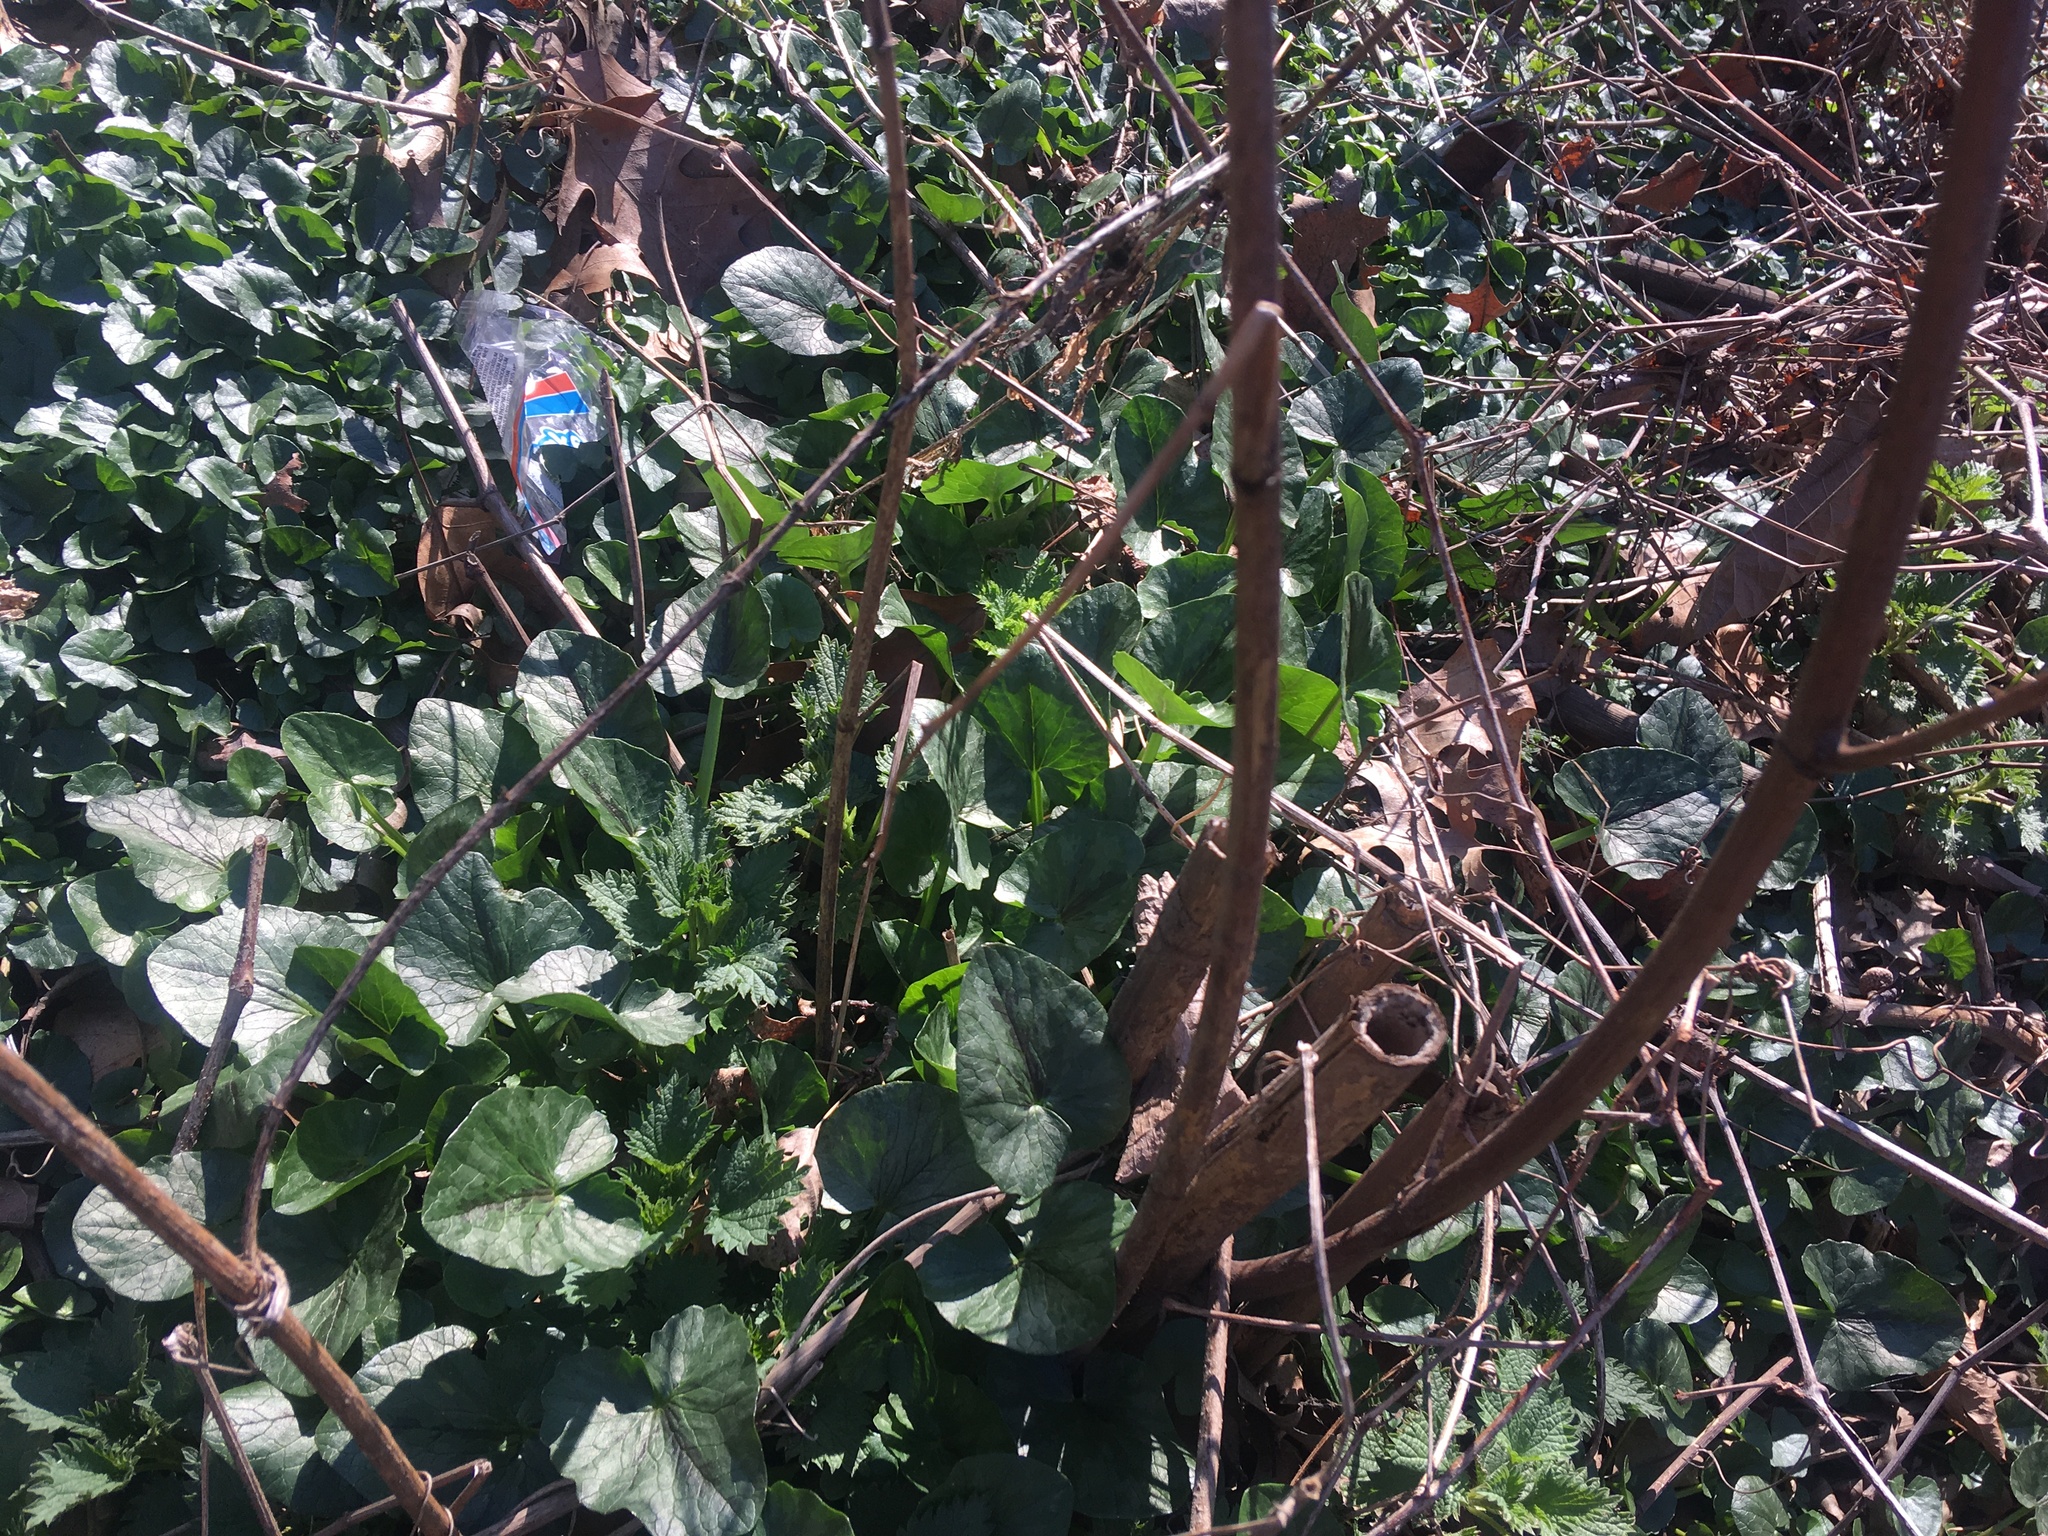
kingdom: Plantae
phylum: Tracheophyta
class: Magnoliopsida
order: Ranunculales
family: Ranunculaceae
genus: Ficaria
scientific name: Ficaria verna
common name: Lesser celandine
